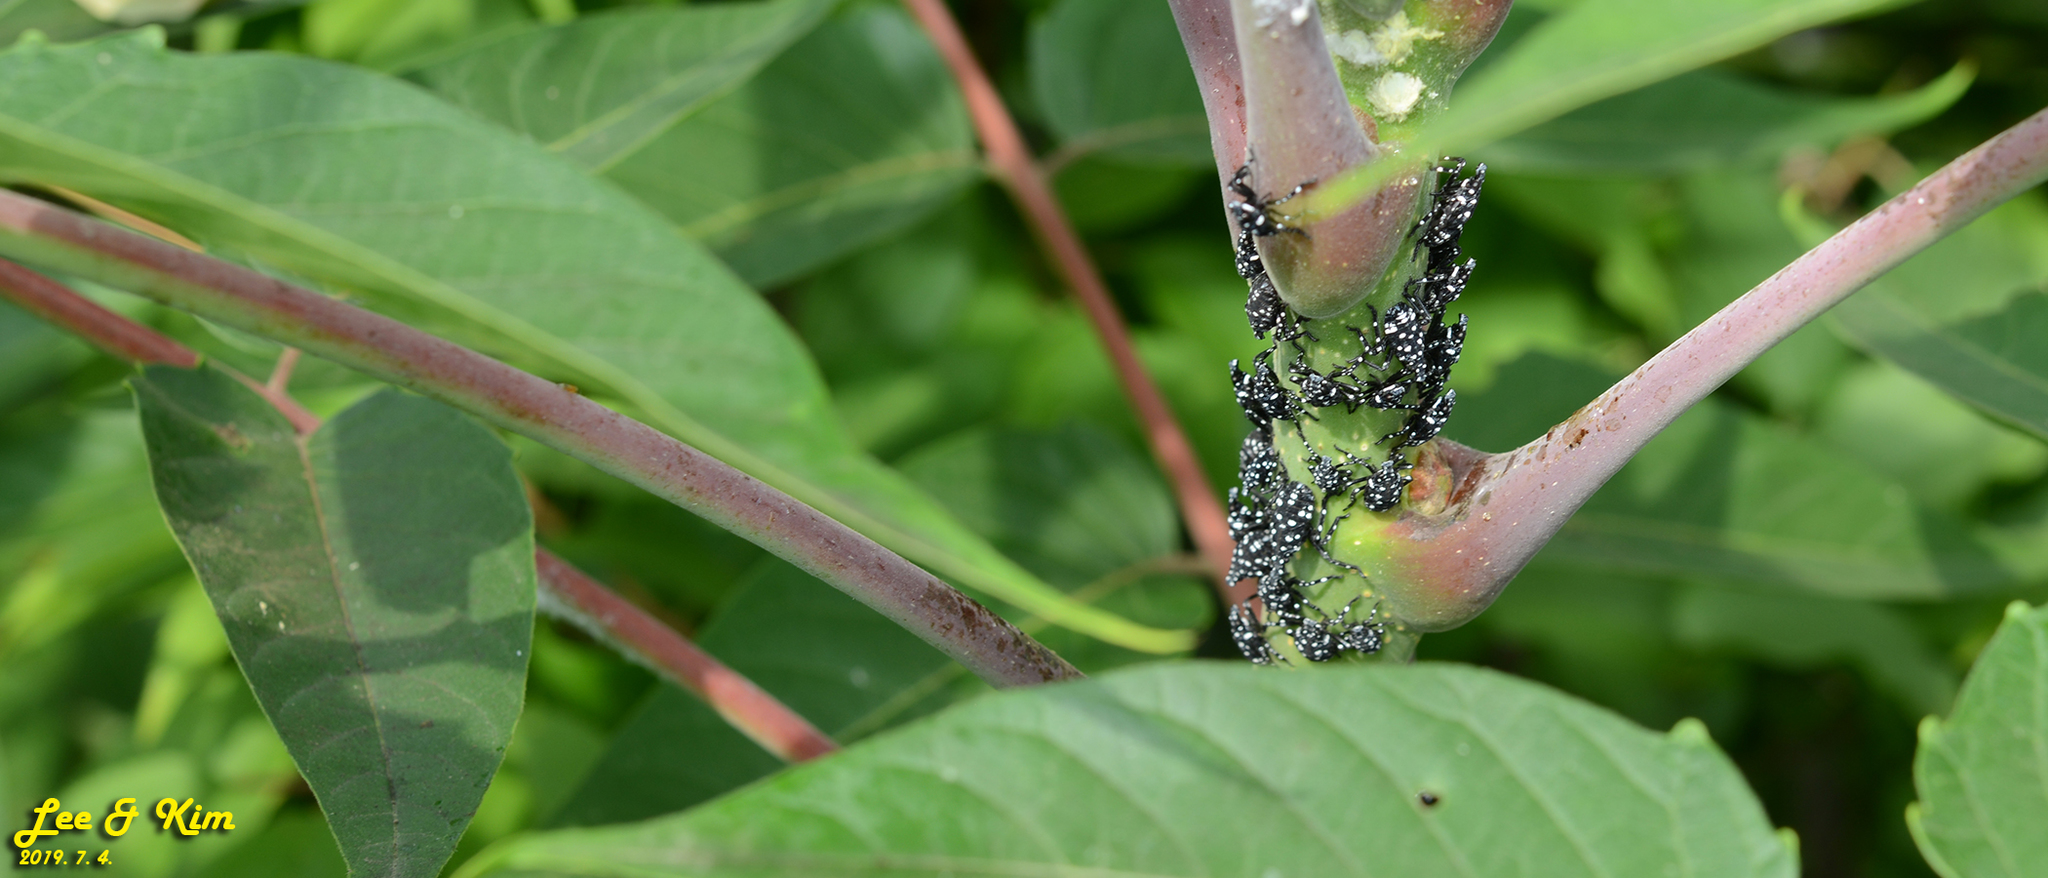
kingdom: Animalia
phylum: Arthropoda
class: Insecta
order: Hemiptera
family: Fulgoridae
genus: Lycorma
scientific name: Lycorma delicatula
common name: Spotted lanternfly
